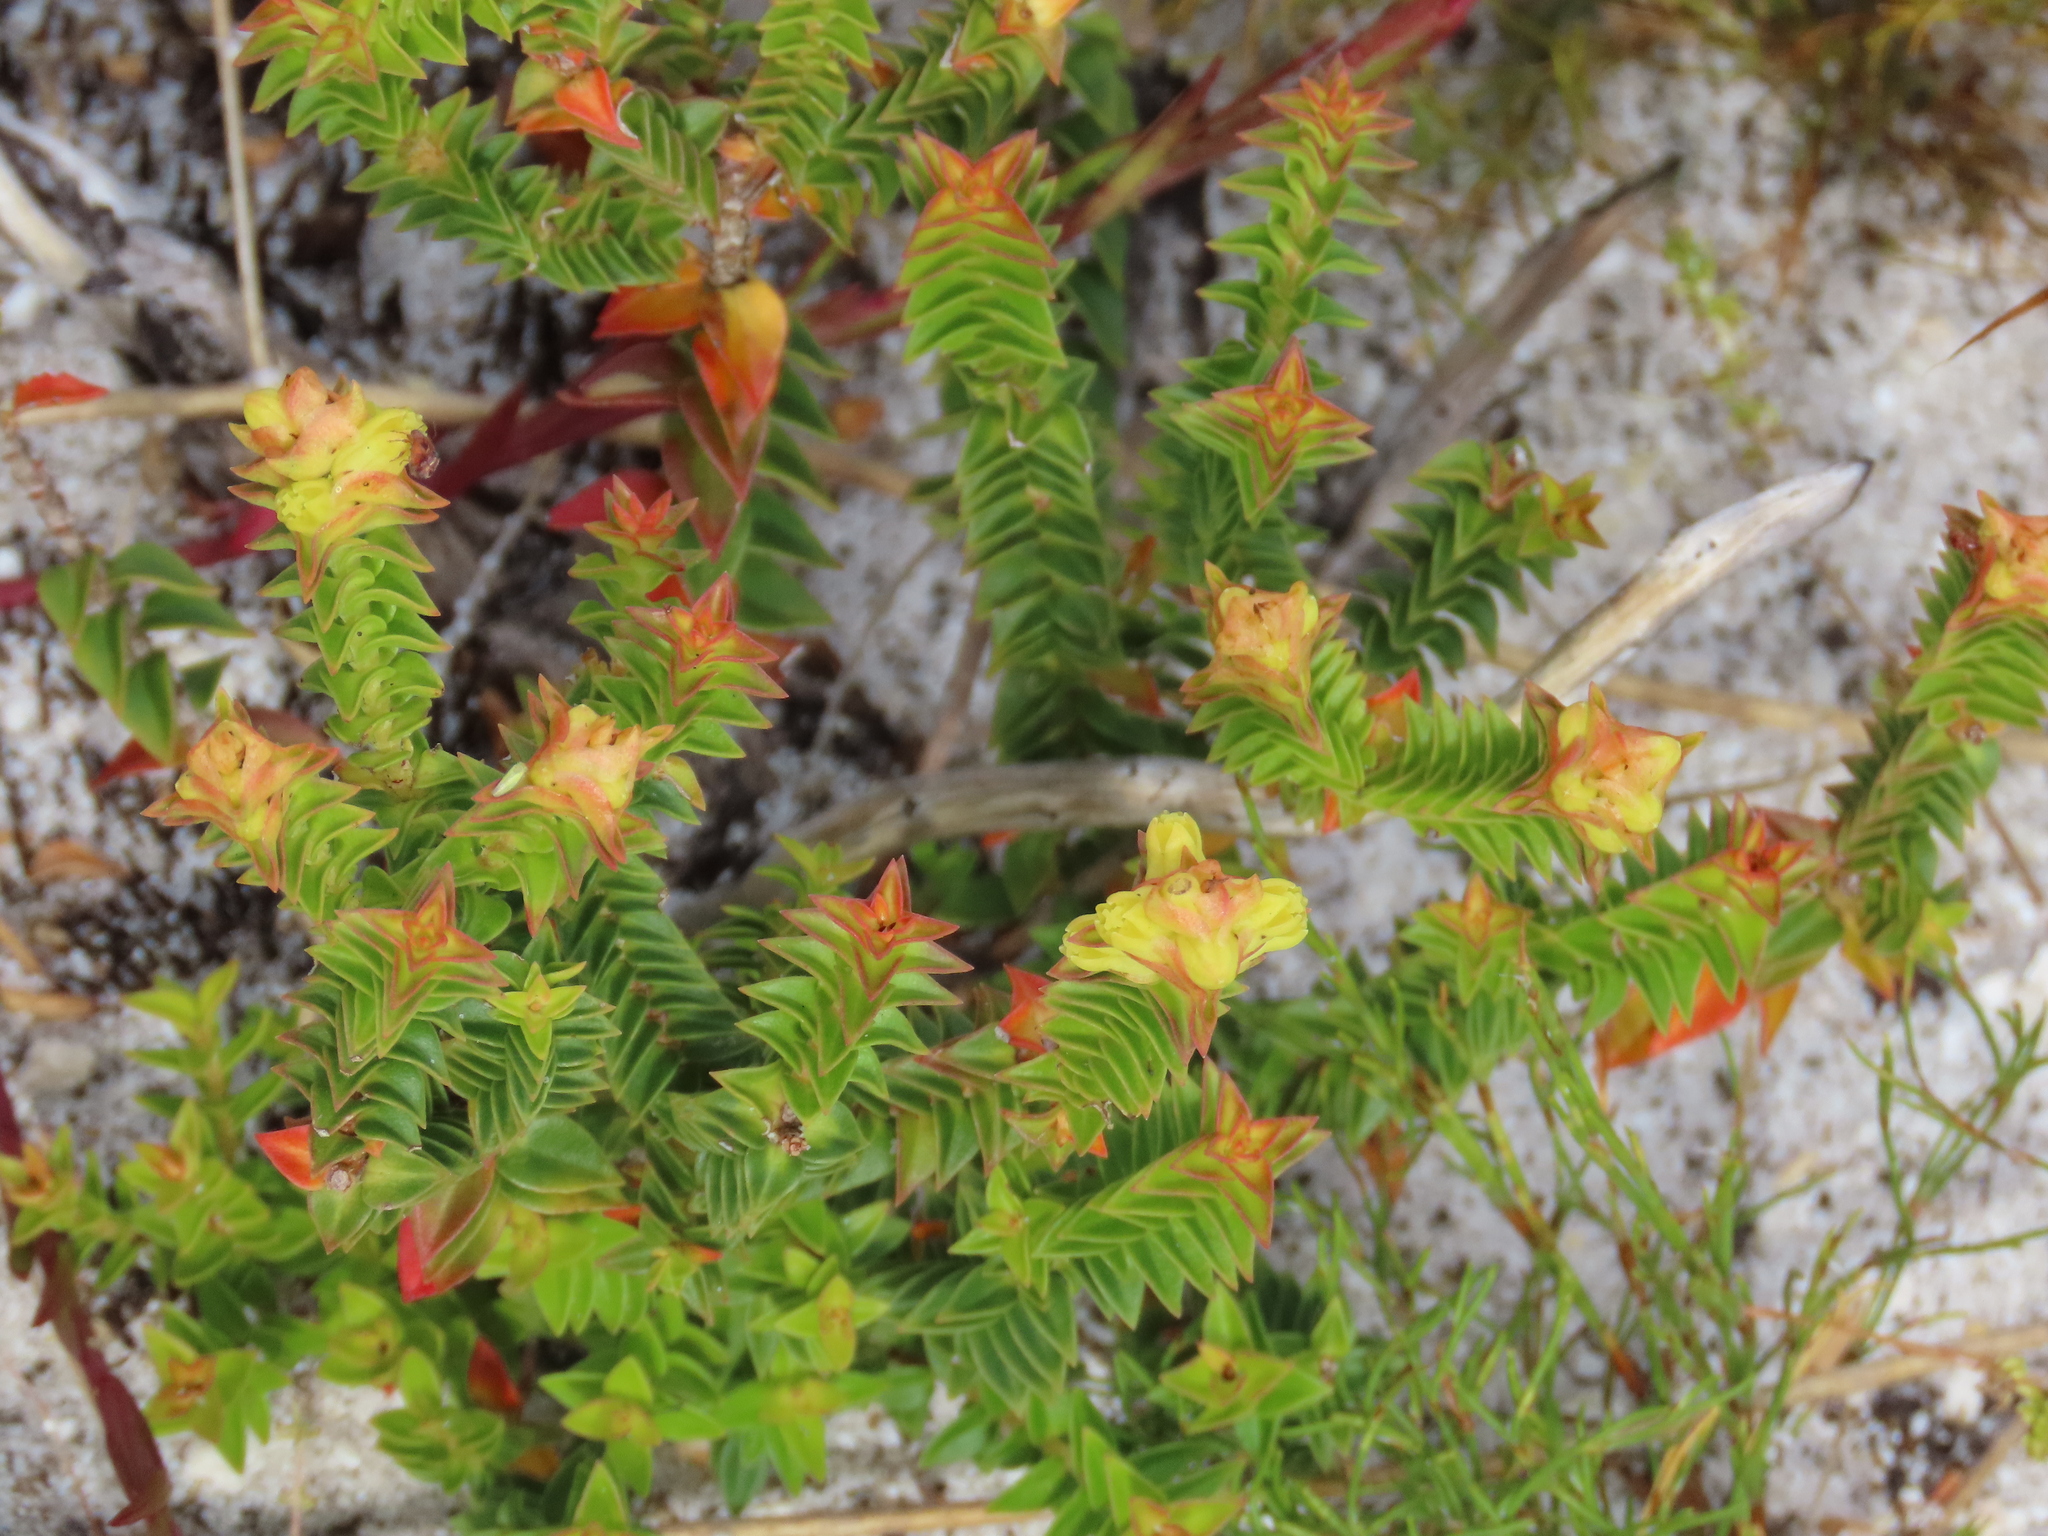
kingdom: Plantae
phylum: Tracheophyta
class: Magnoliopsida
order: Myrtales
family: Penaeaceae
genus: Penaea
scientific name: Penaea mucronata
